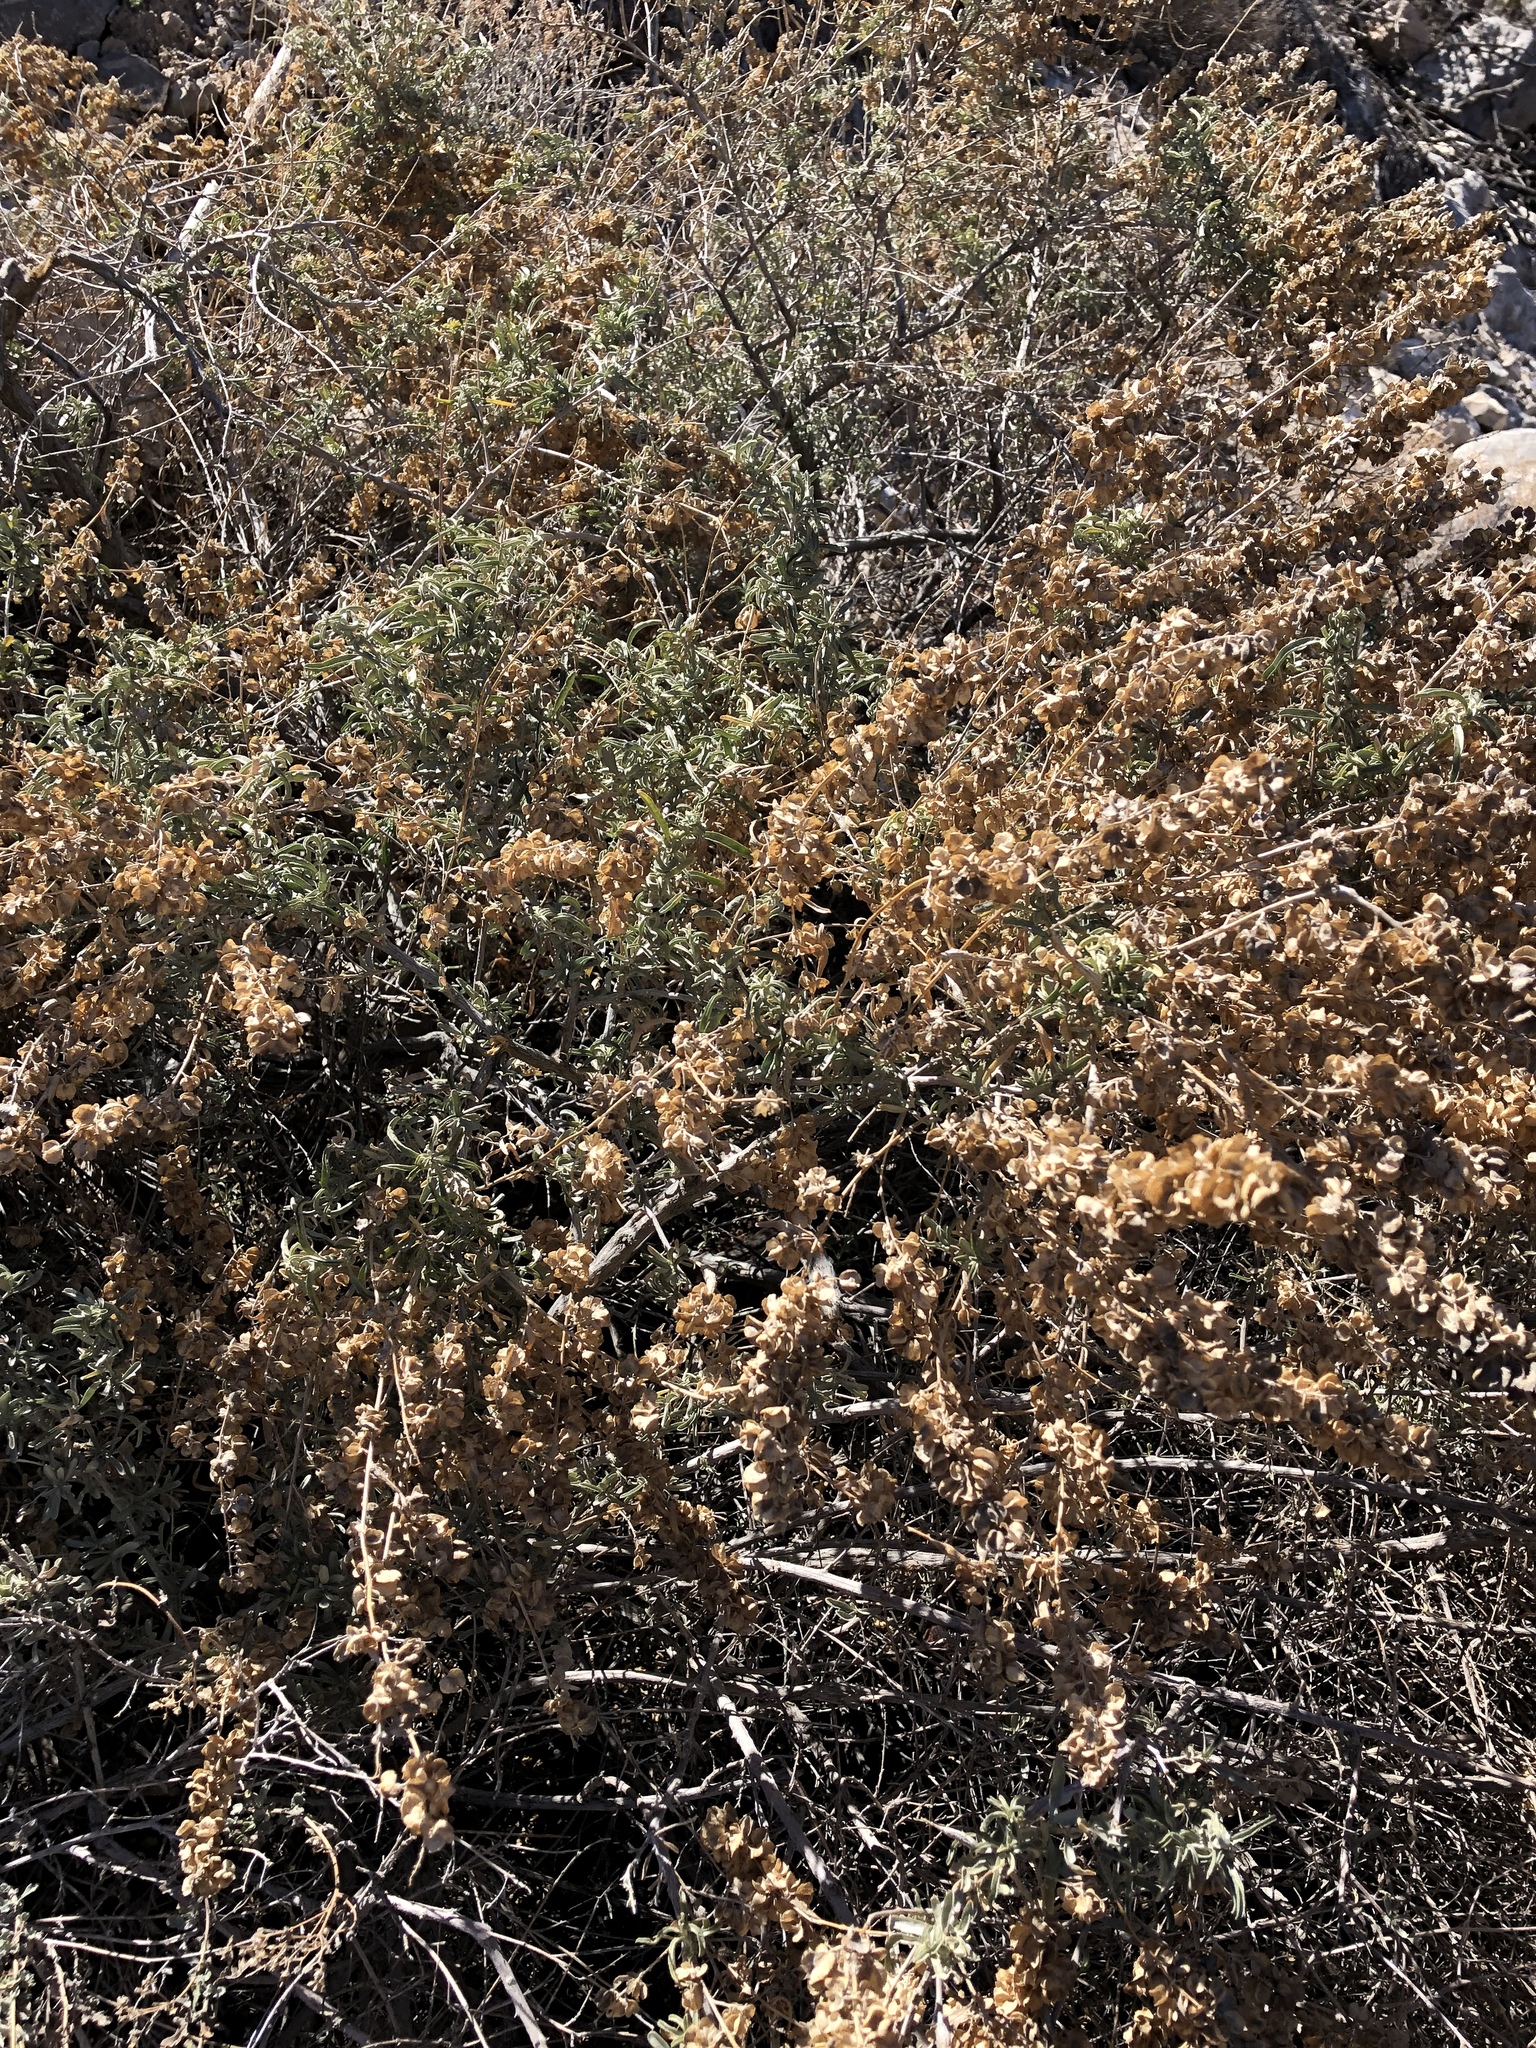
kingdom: Plantae
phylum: Tracheophyta
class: Magnoliopsida
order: Caryophyllales
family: Amaranthaceae
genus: Atriplex
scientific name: Atriplex canescens
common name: Four-wing saltbush
